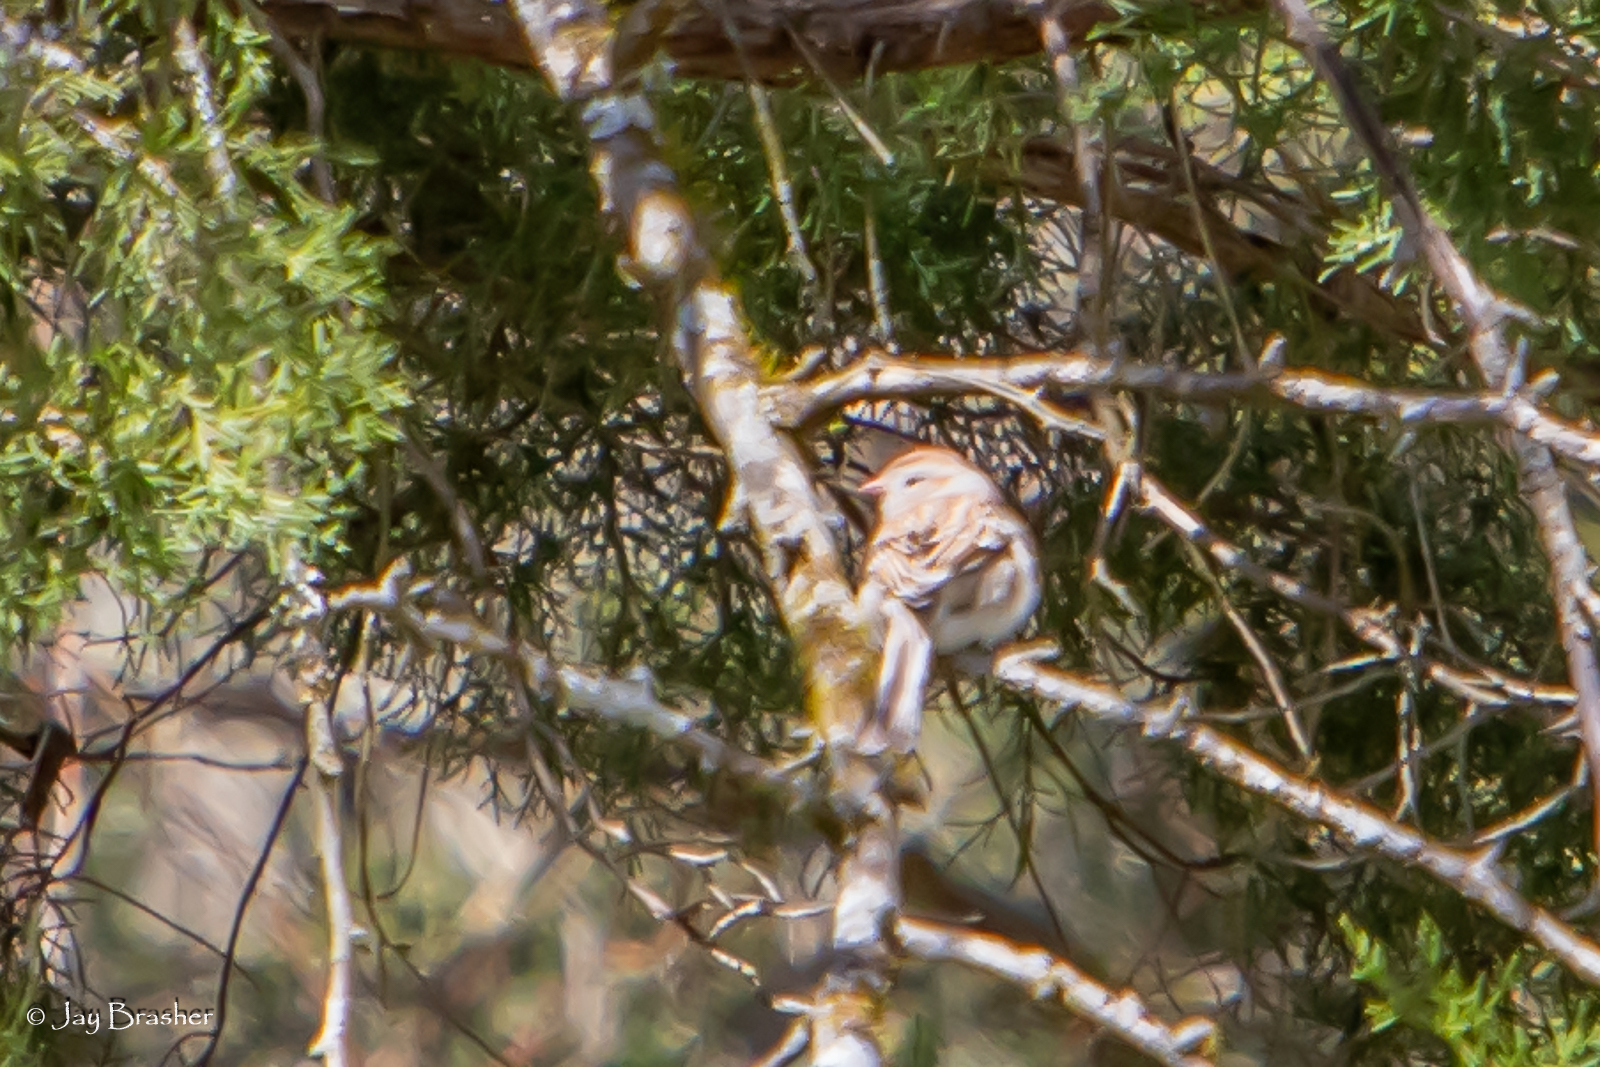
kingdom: Animalia
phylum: Chordata
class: Aves
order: Passeriformes
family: Passerellidae
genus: Spizella
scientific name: Spizella pusilla
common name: Field sparrow
